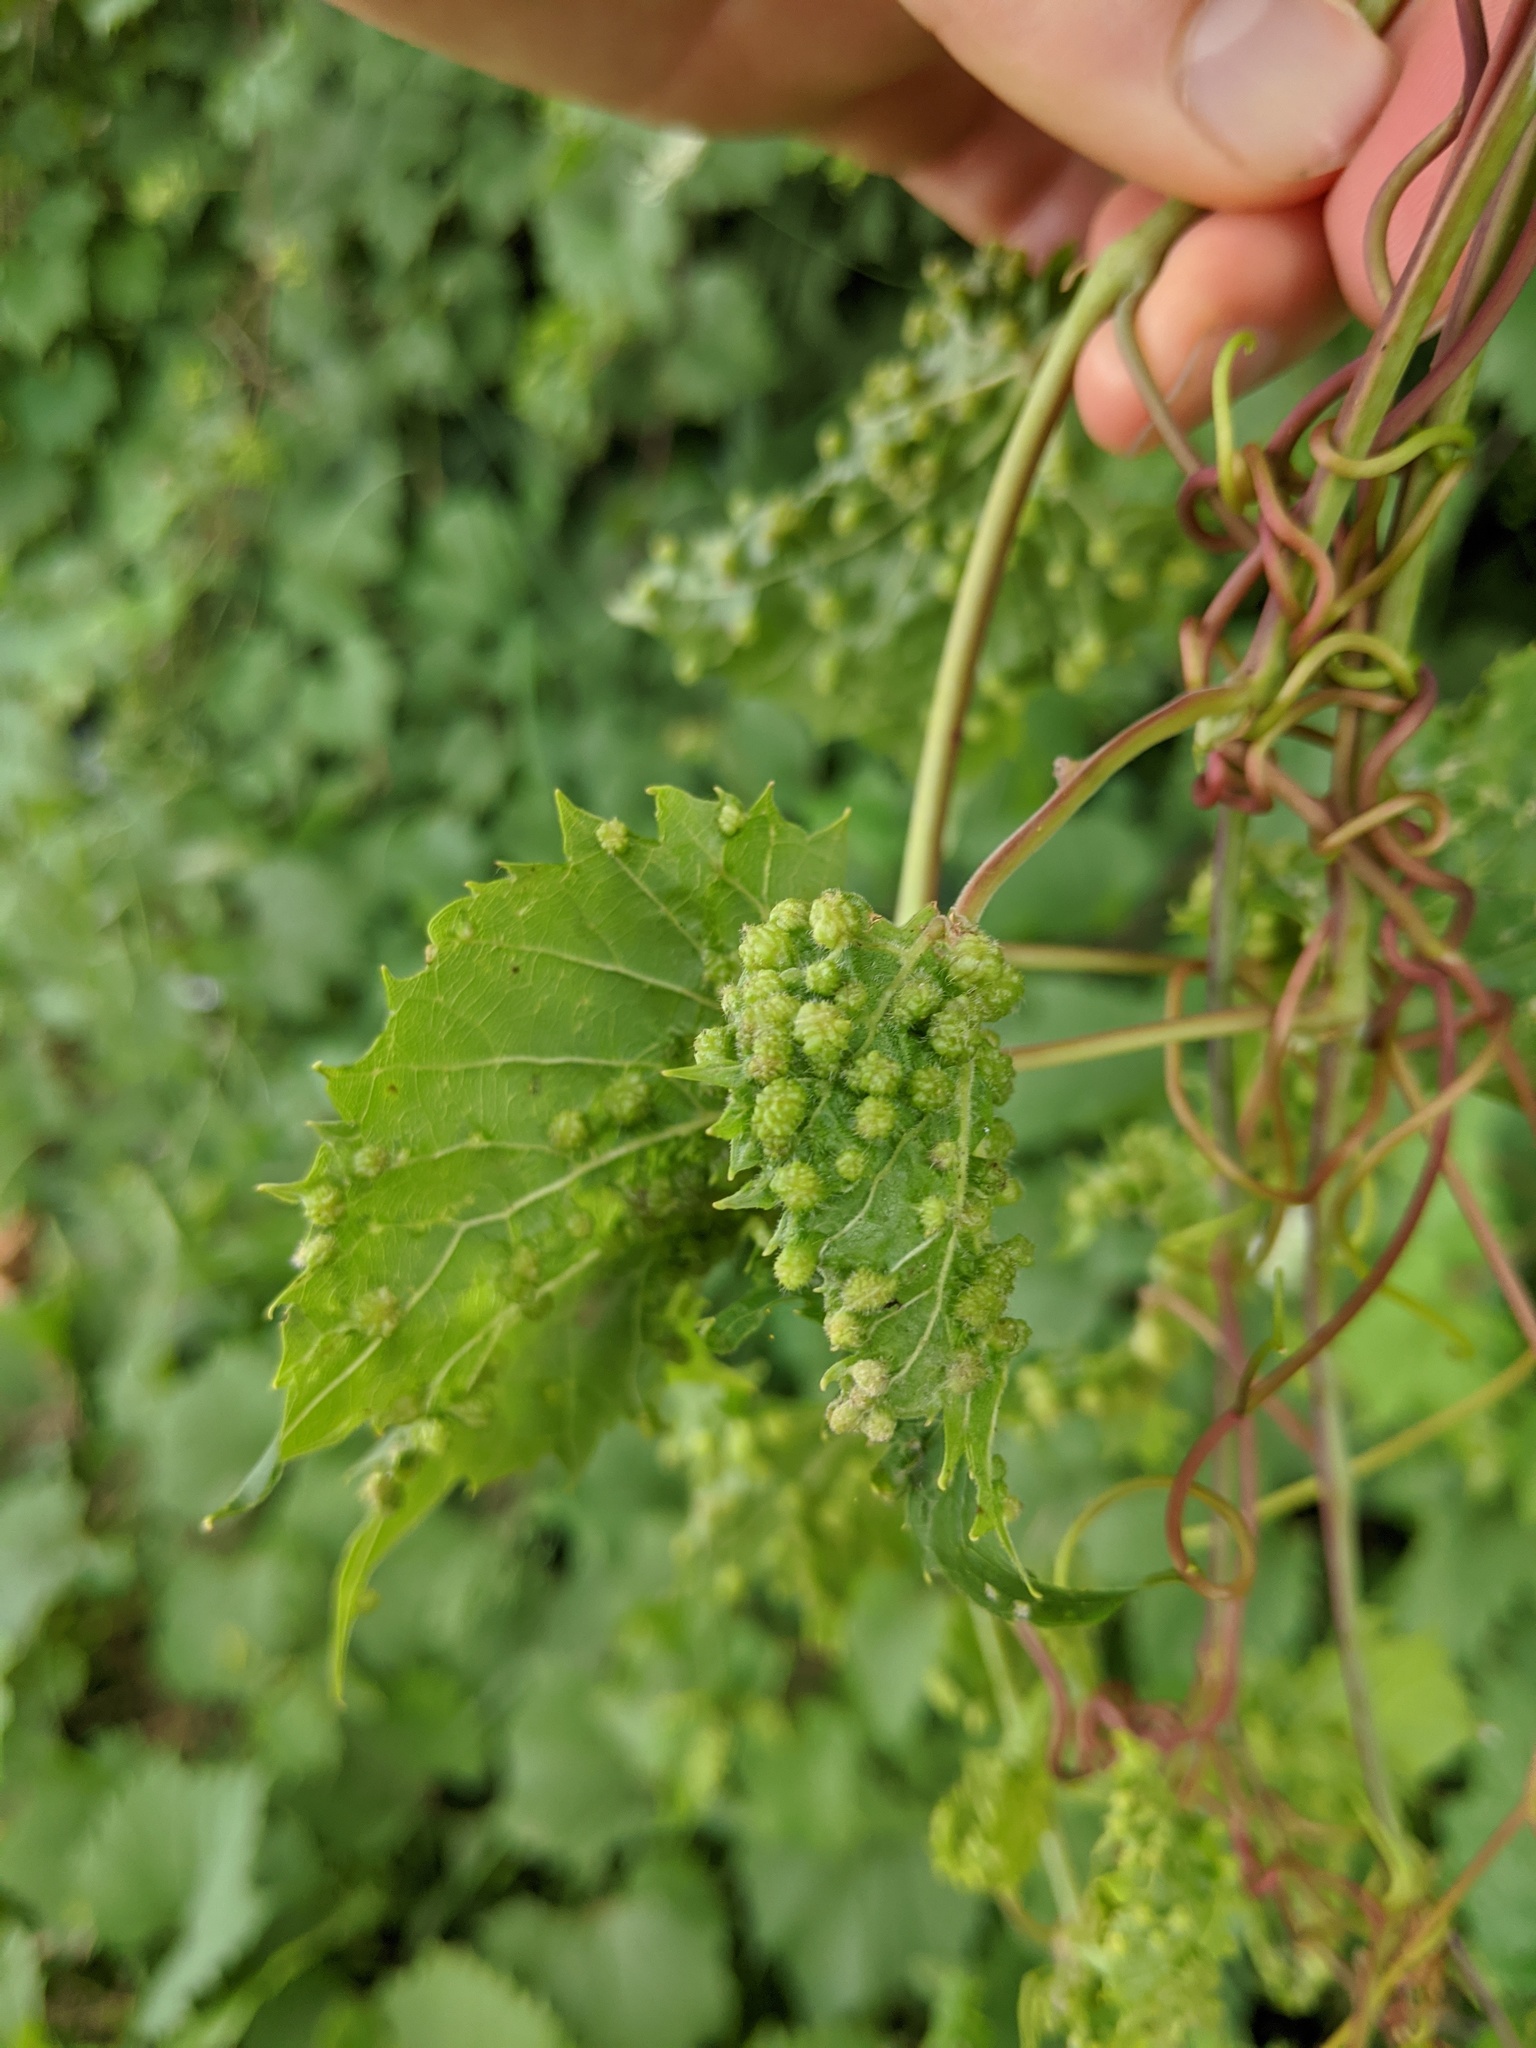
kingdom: Animalia
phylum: Arthropoda
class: Insecta
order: Hemiptera
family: Phylloxeridae
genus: Daktulosphaira
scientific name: Daktulosphaira vitifoliae
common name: Grape phylloxera
